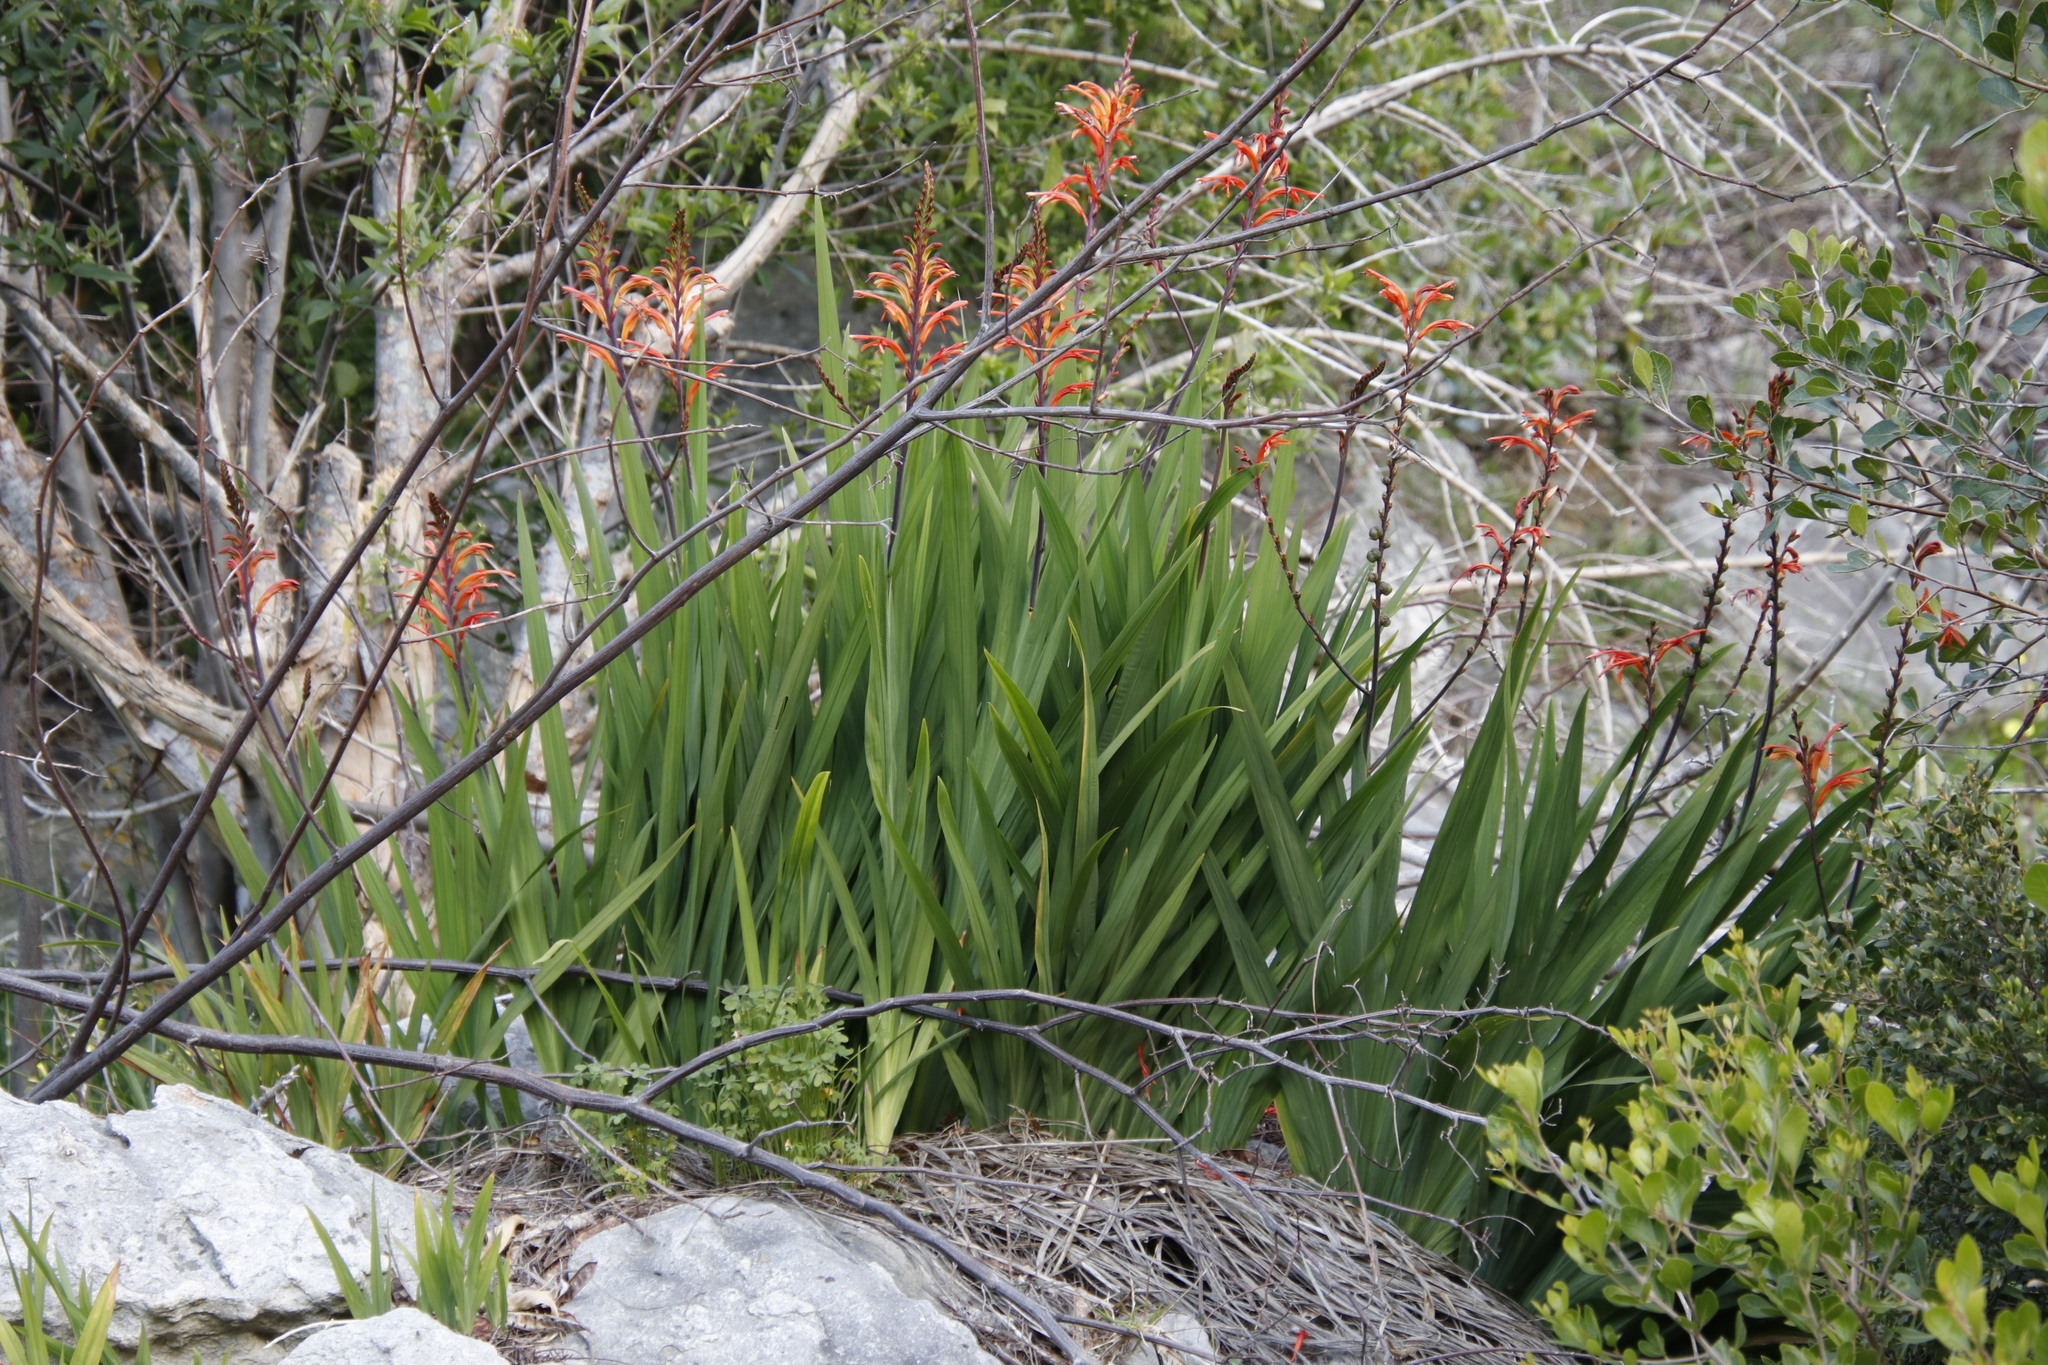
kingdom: Plantae
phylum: Tracheophyta
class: Liliopsida
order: Asparagales
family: Iridaceae
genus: Chasmanthe
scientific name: Chasmanthe floribunda
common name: African cornflag
